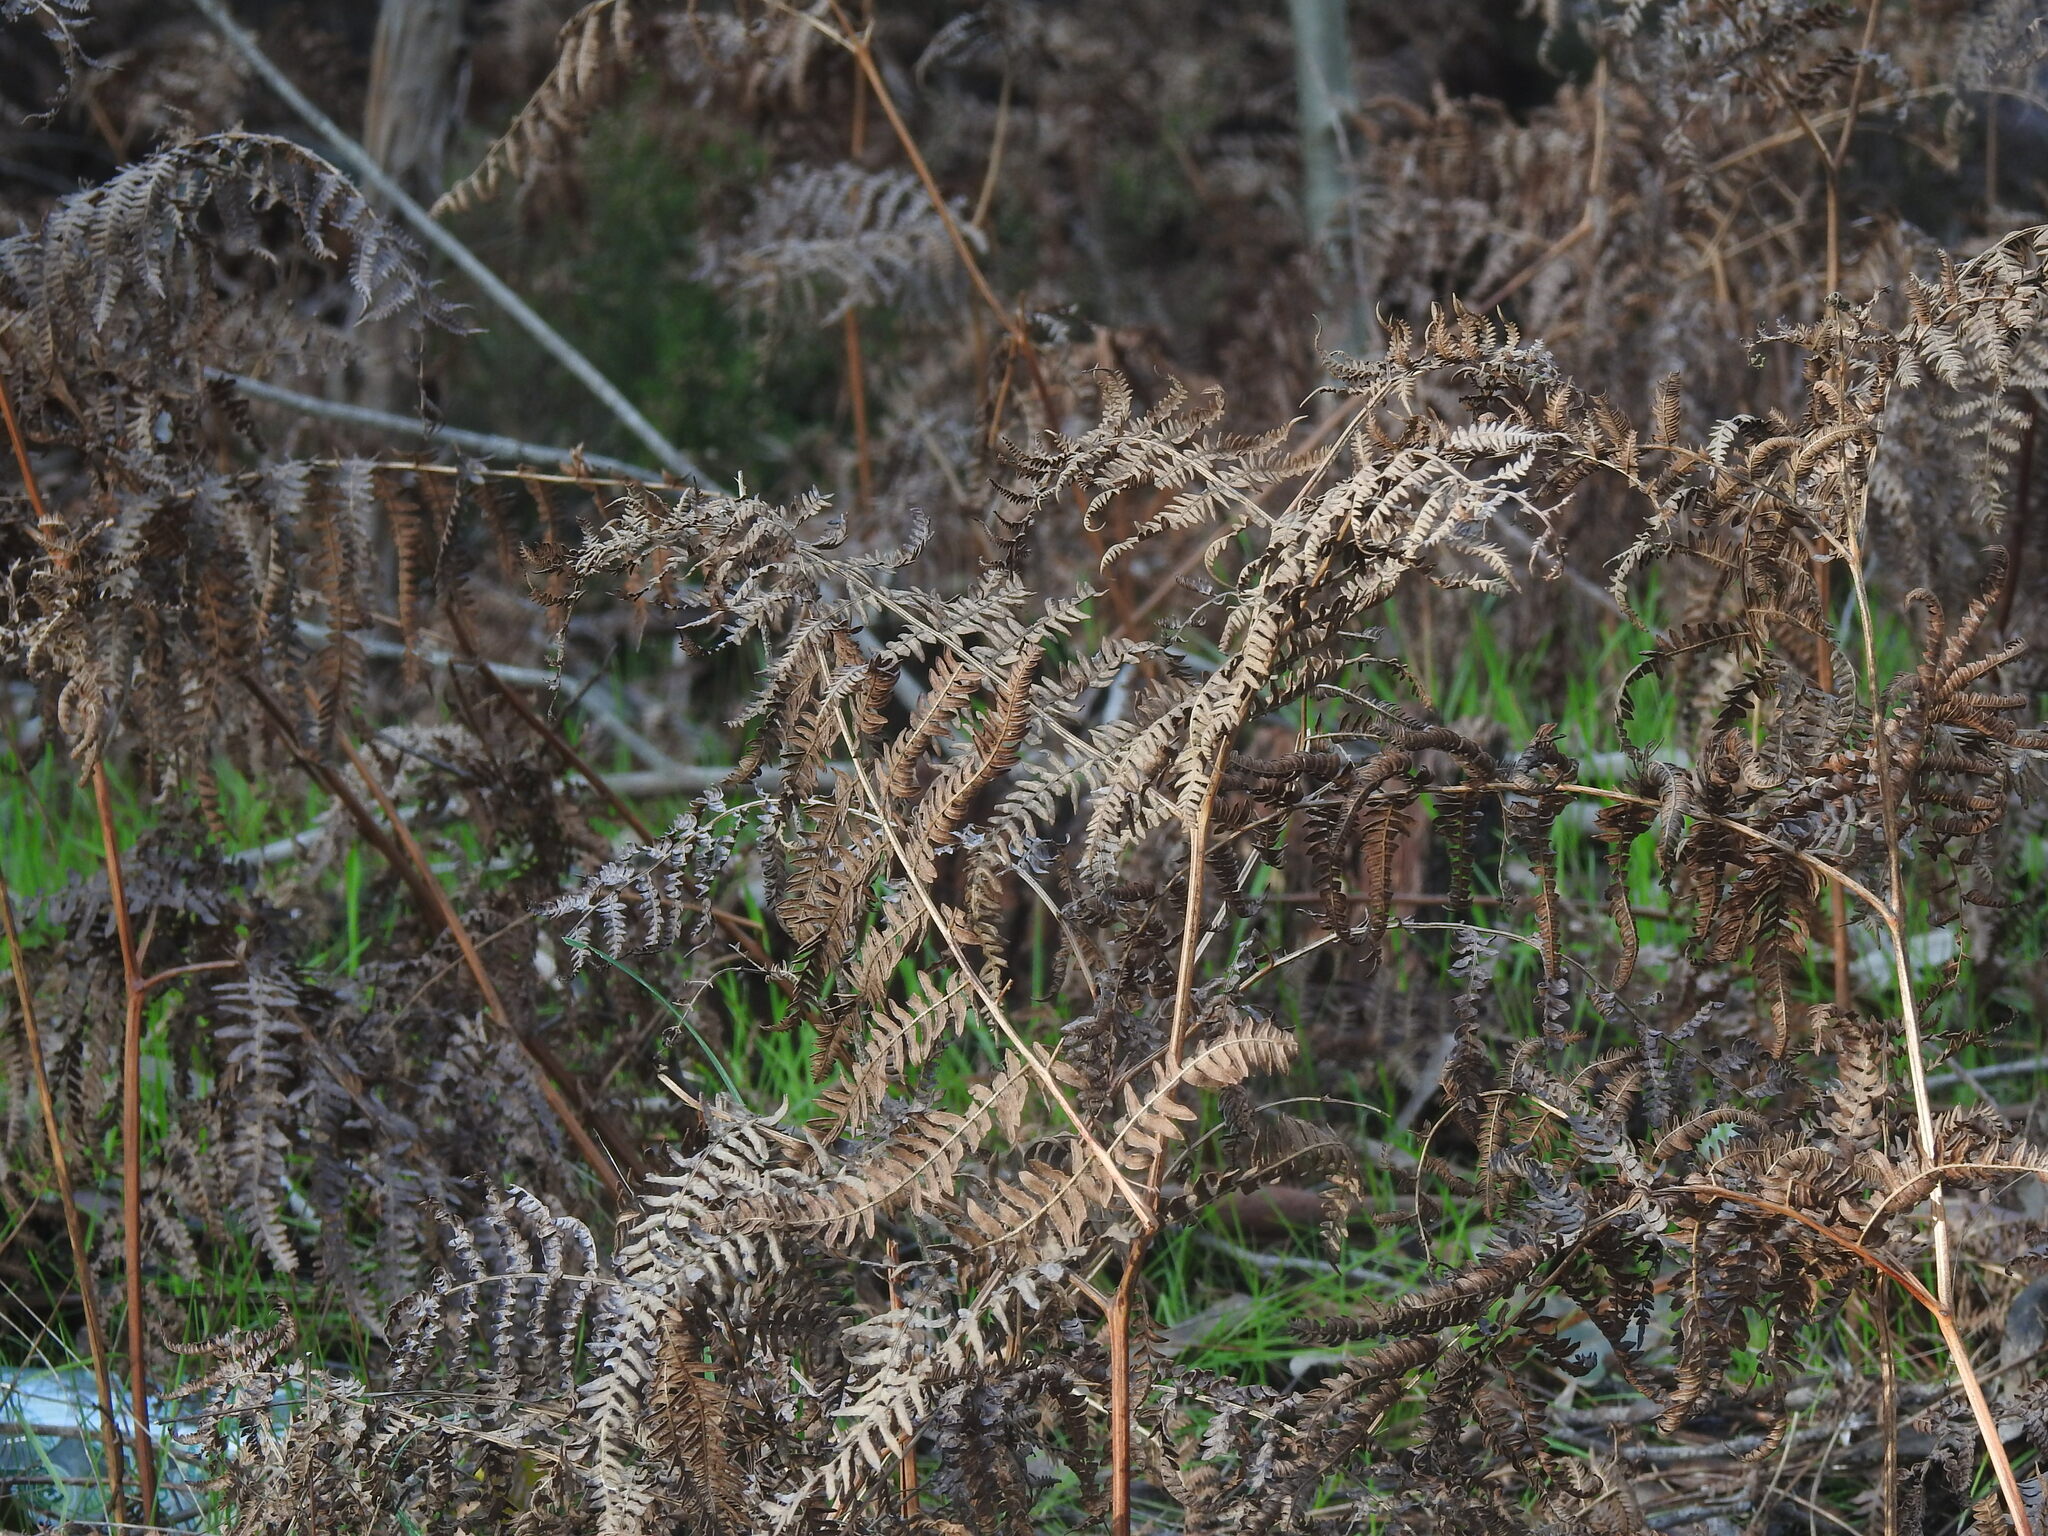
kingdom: Plantae
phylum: Tracheophyta
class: Polypodiopsida
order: Polypodiales
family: Dennstaedtiaceae
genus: Pteridium
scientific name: Pteridium aquilinum
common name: Bracken
